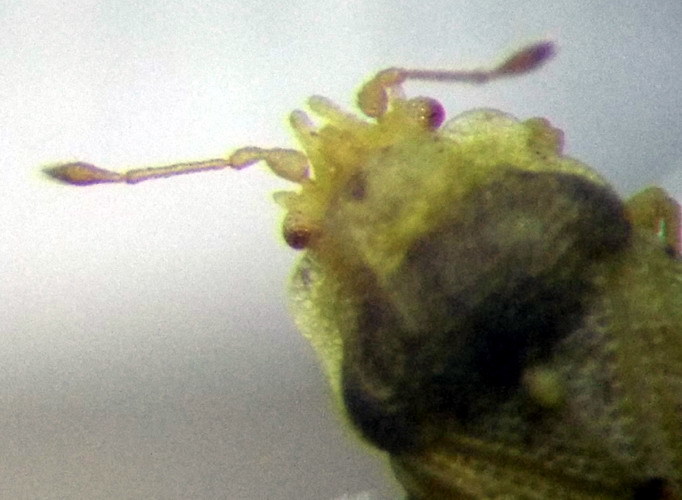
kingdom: Animalia
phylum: Arthropoda
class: Insecta
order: Hemiptera
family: Piesmatidae
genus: Parapiesma
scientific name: Parapiesma salsolae
